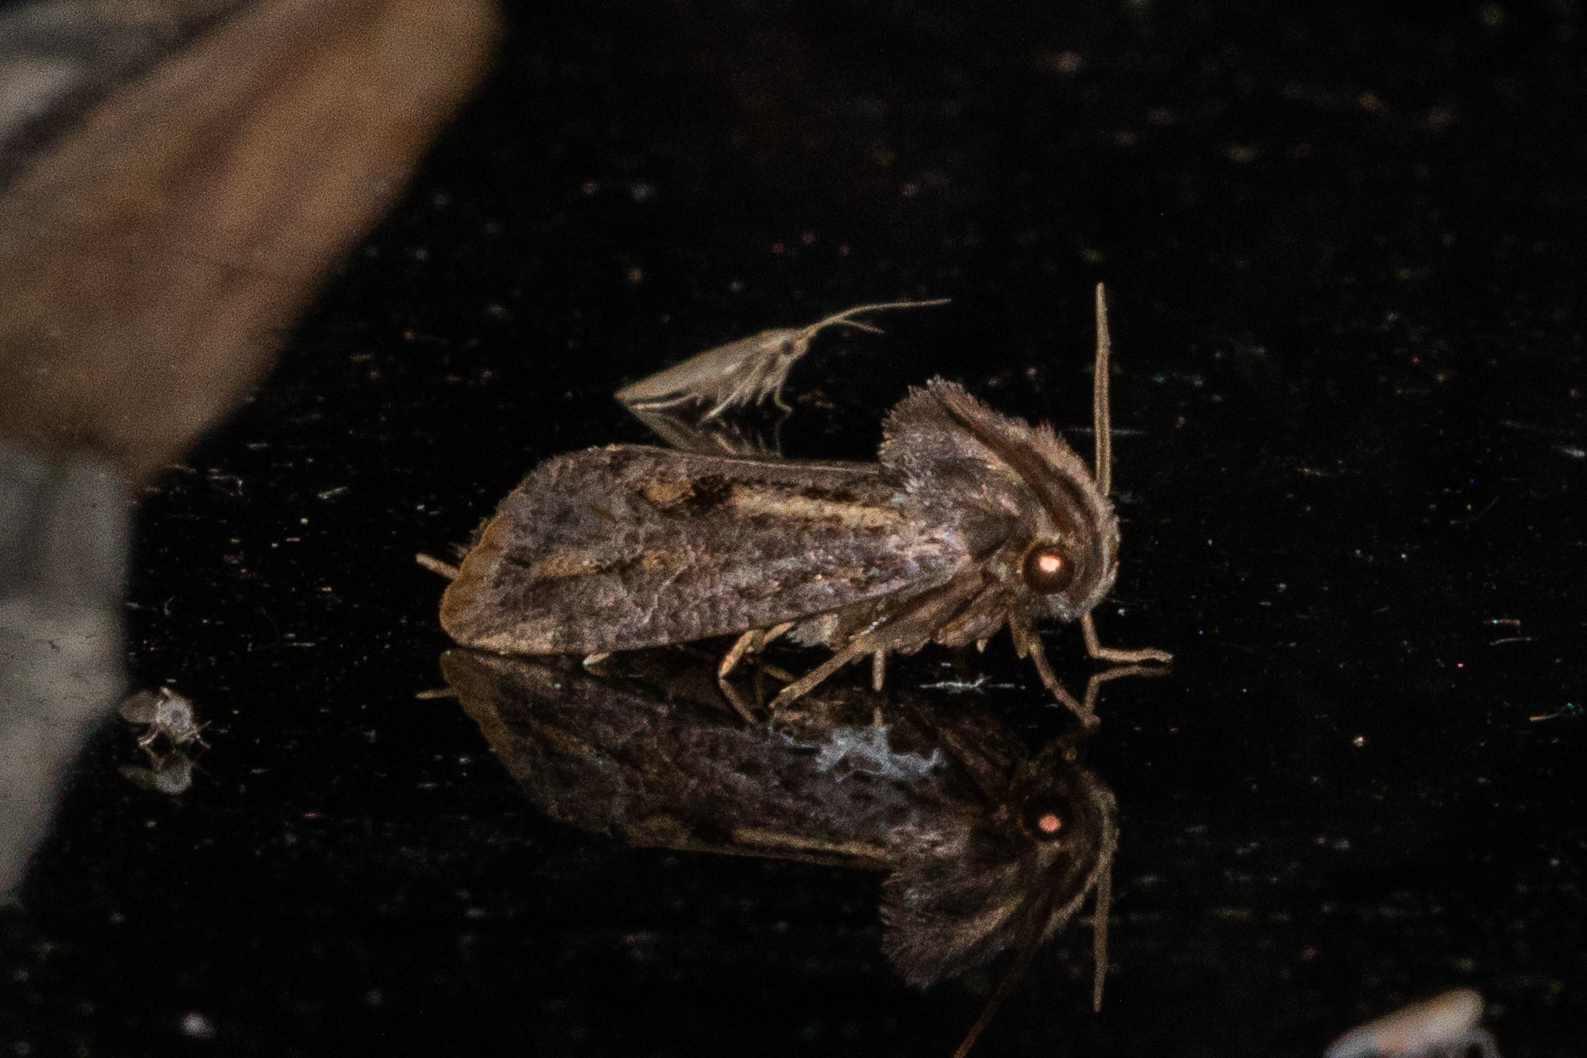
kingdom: Animalia
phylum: Arthropoda
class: Insecta
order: Lepidoptera
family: Tineidae
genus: Acrolophus
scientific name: Acrolophus popeanella
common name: Clemens' grass tubeworm moth
